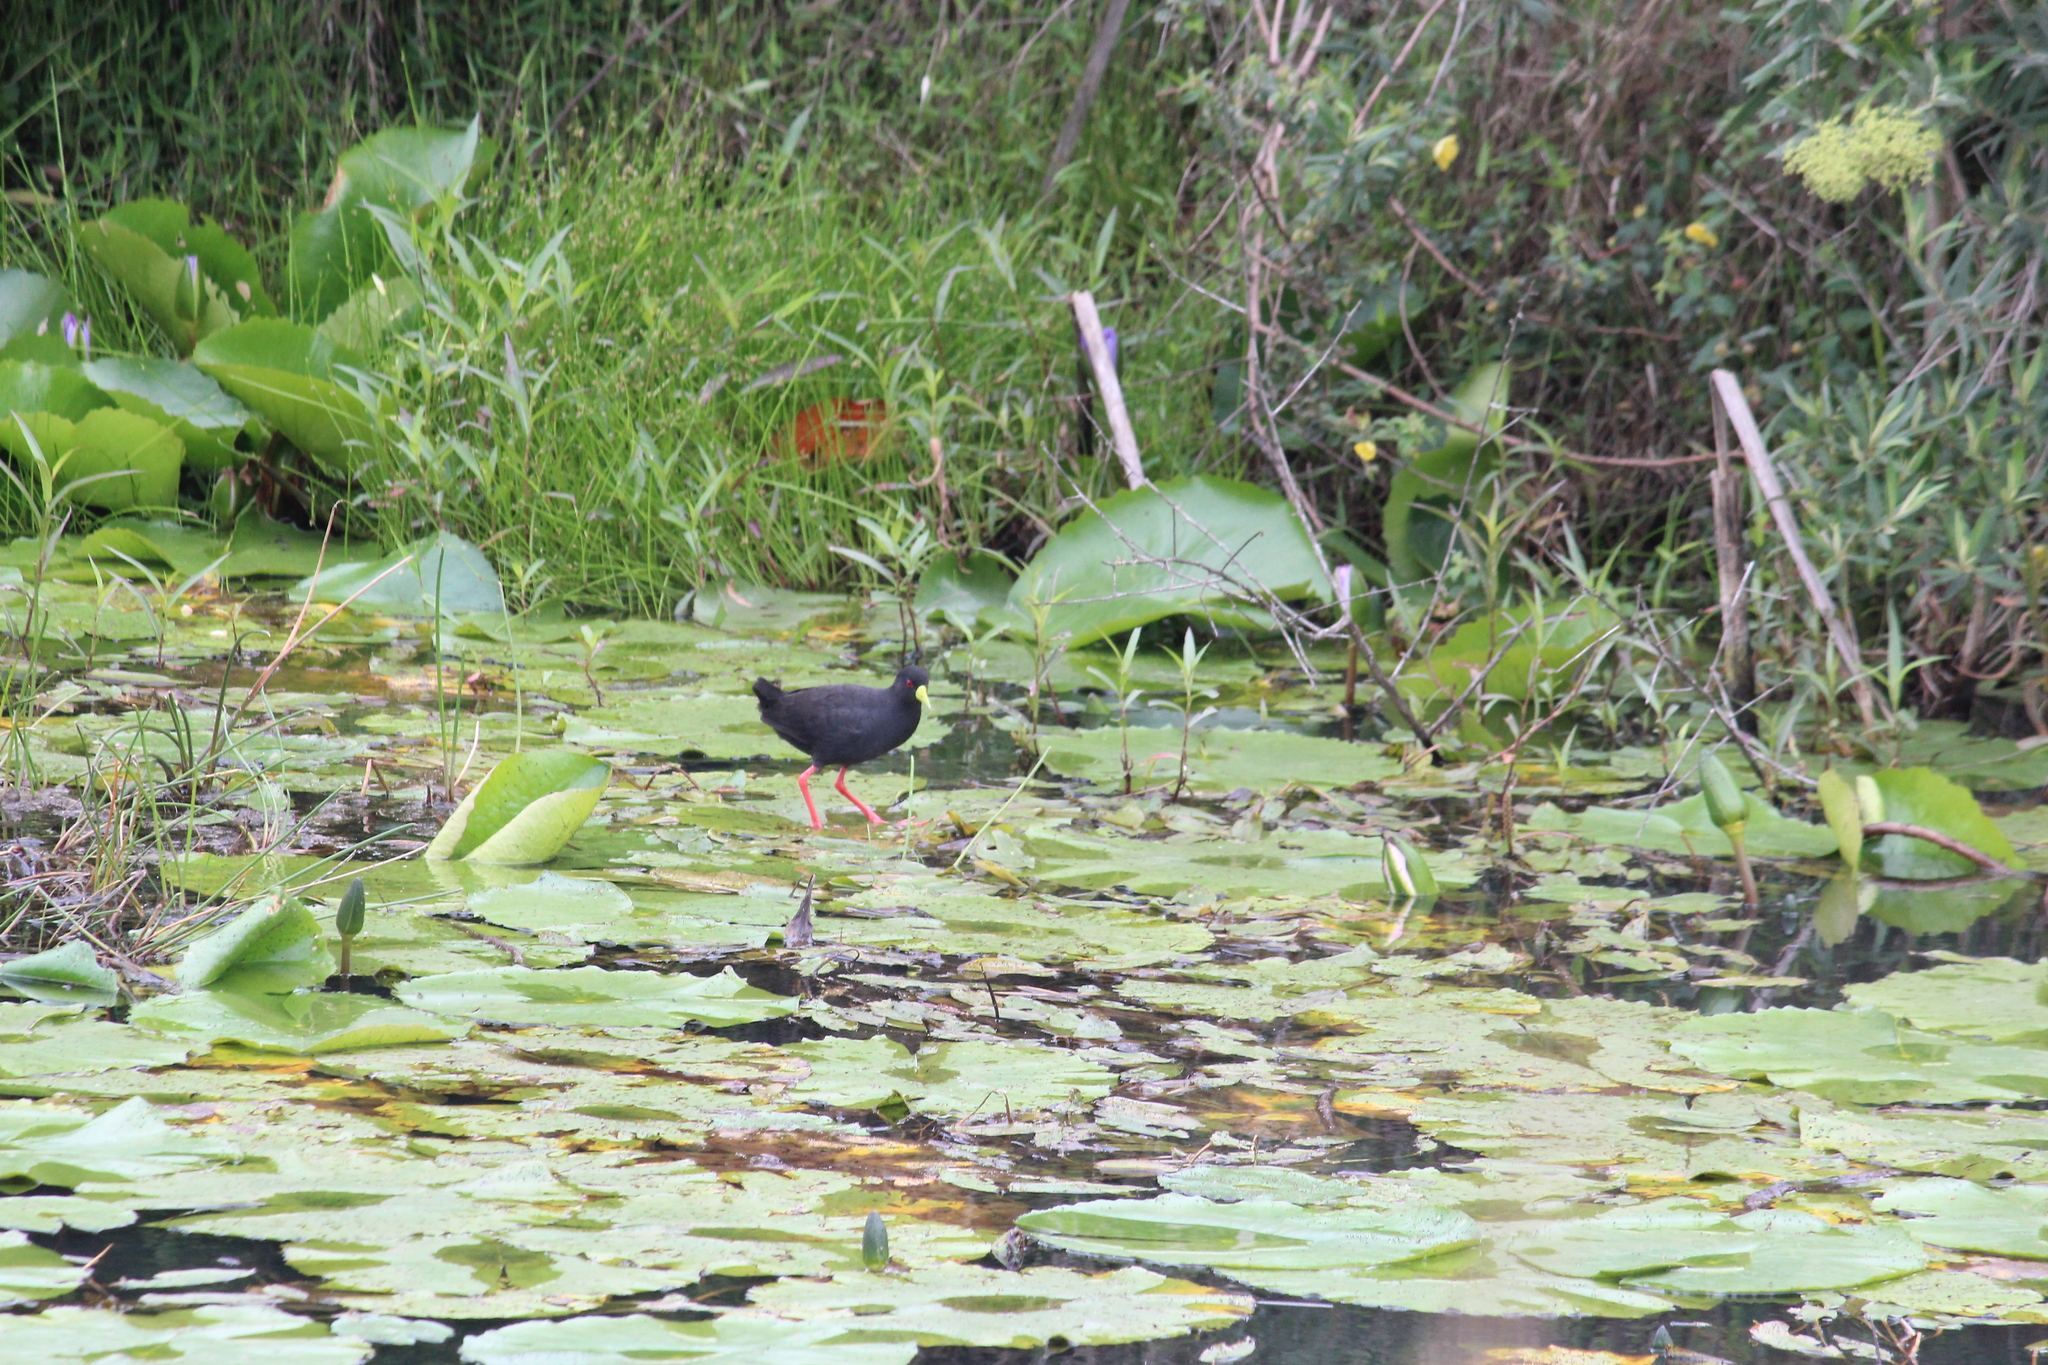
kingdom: Animalia
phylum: Chordata
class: Aves
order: Gruiformes
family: Rallidae
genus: Amaurornis
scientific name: Amaurornis flavirostra
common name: Black crake
